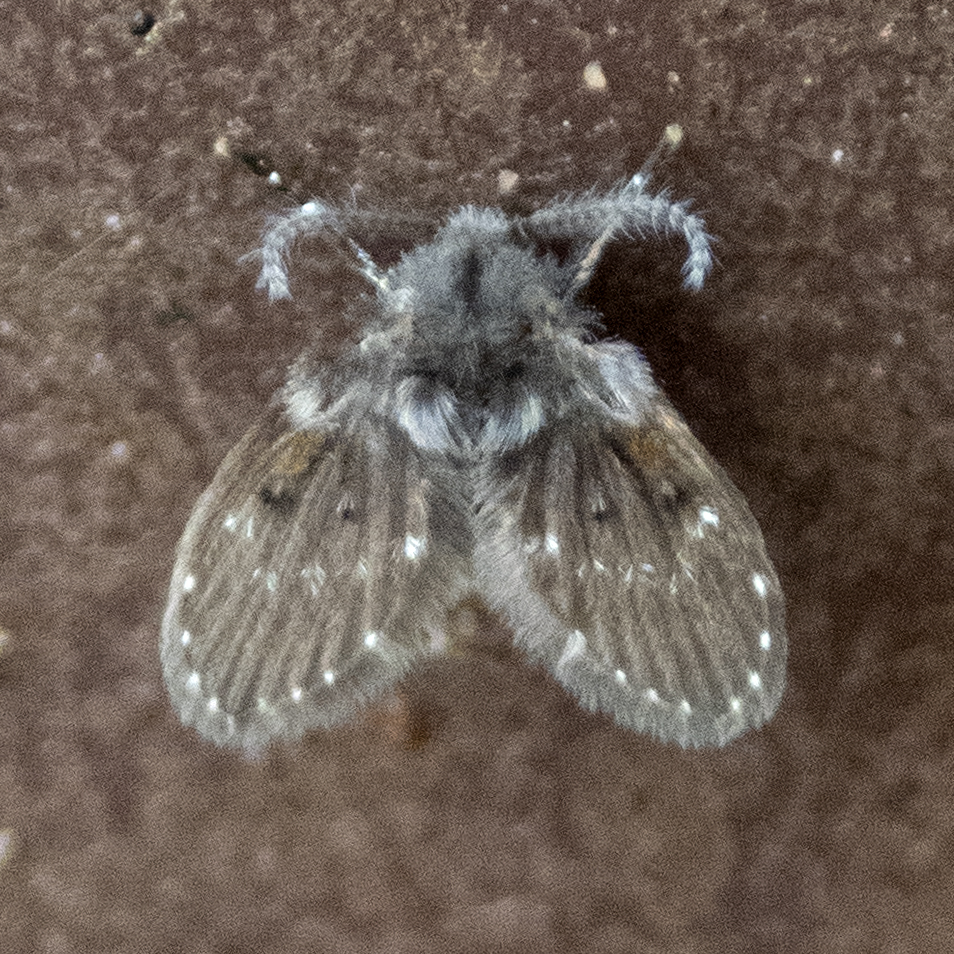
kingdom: Animalia
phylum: Arthropoda
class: Insecta
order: Diptera
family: Psychodidae
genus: Clogmia
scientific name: Clogmia albipunctatus
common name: White-spotted moth fly
